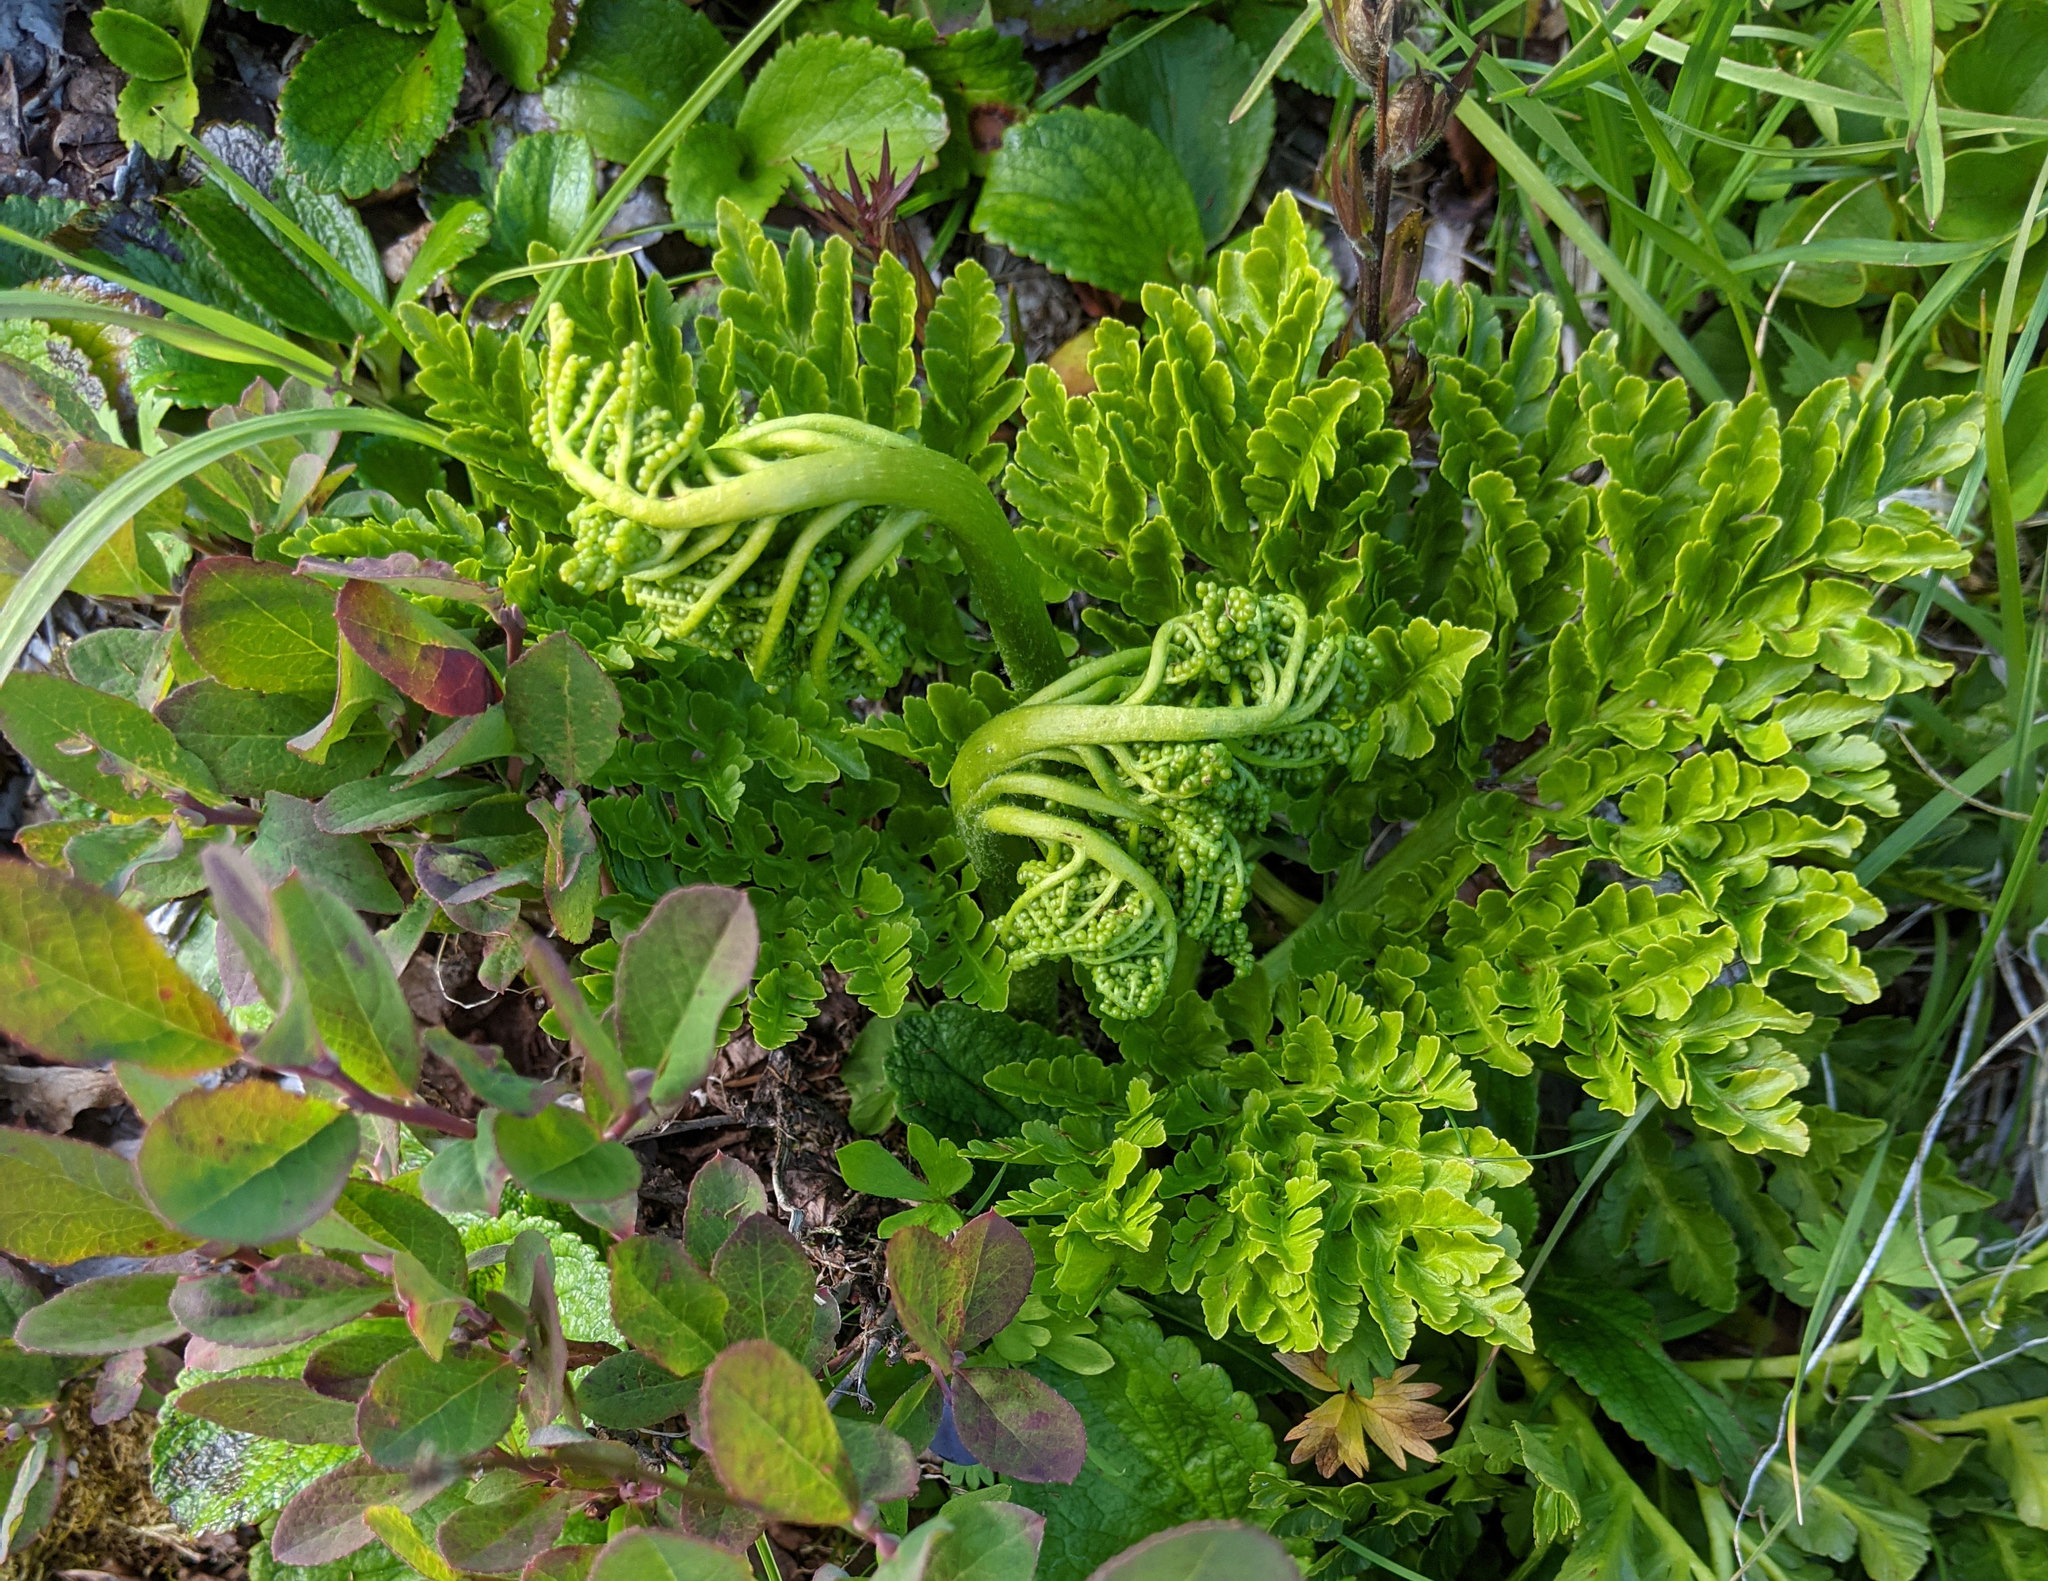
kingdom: Plantae
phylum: Tracheophyta
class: Polypodiopsida
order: Ophioglossales
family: Ophioglossaceae
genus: Sceptridium
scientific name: Sceptridium multifidum
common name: Leathery grape fern
